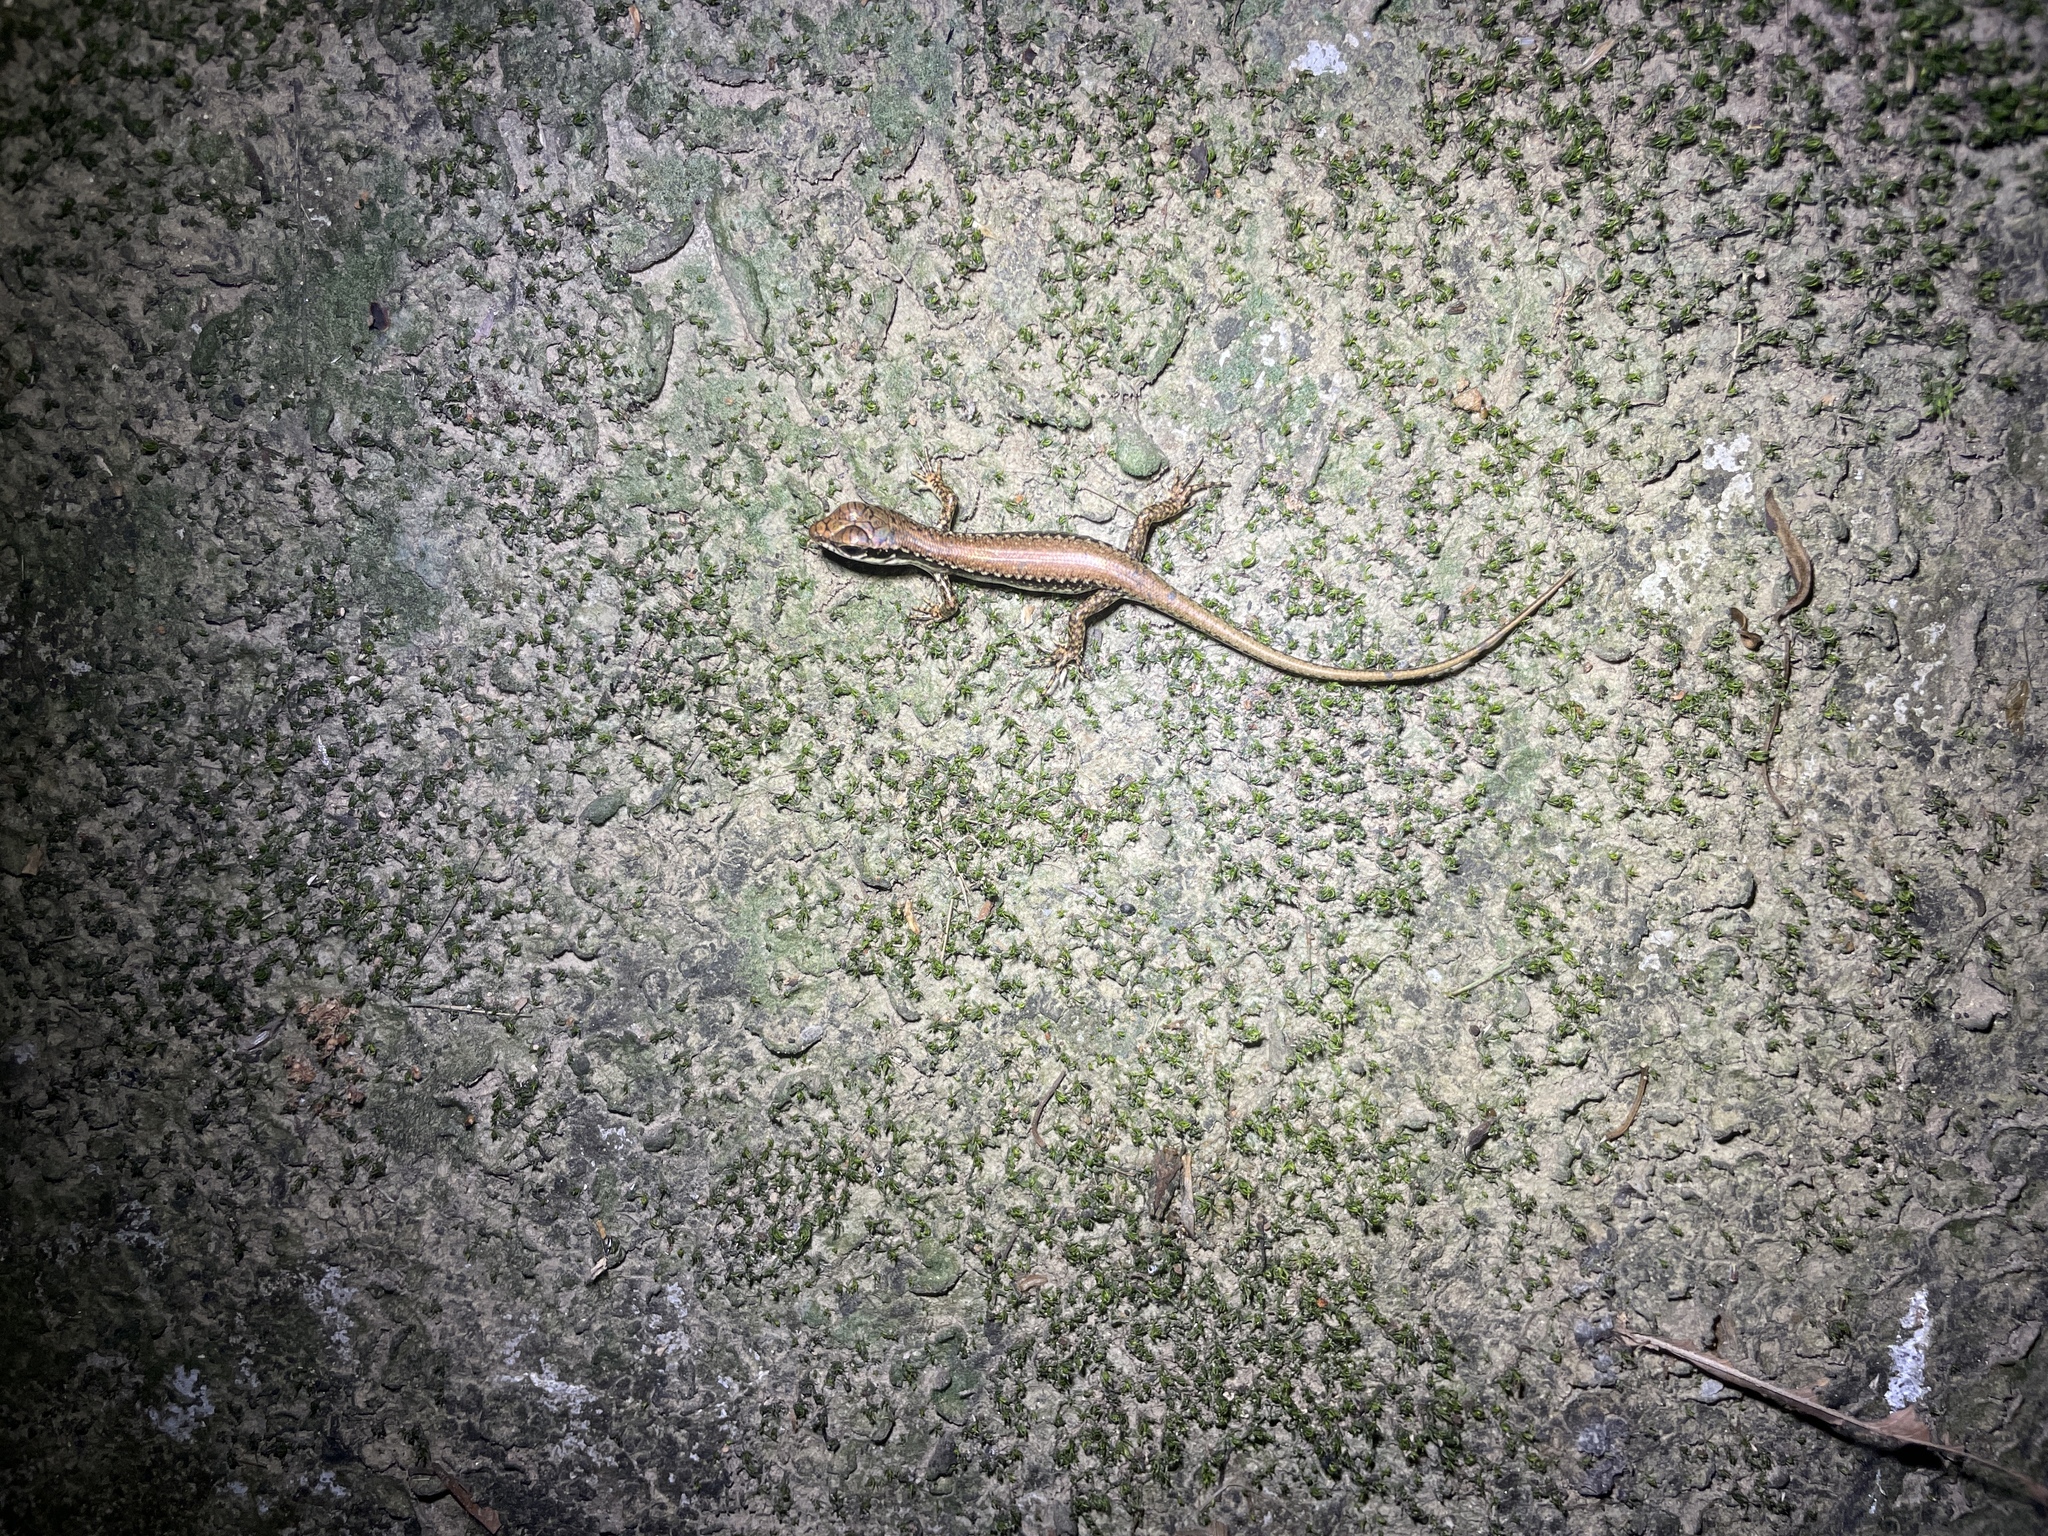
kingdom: Animalia
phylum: Chordata
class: Squamata
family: Scincidae
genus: Sphenomorphus
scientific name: Sphenomorphus incognitus
